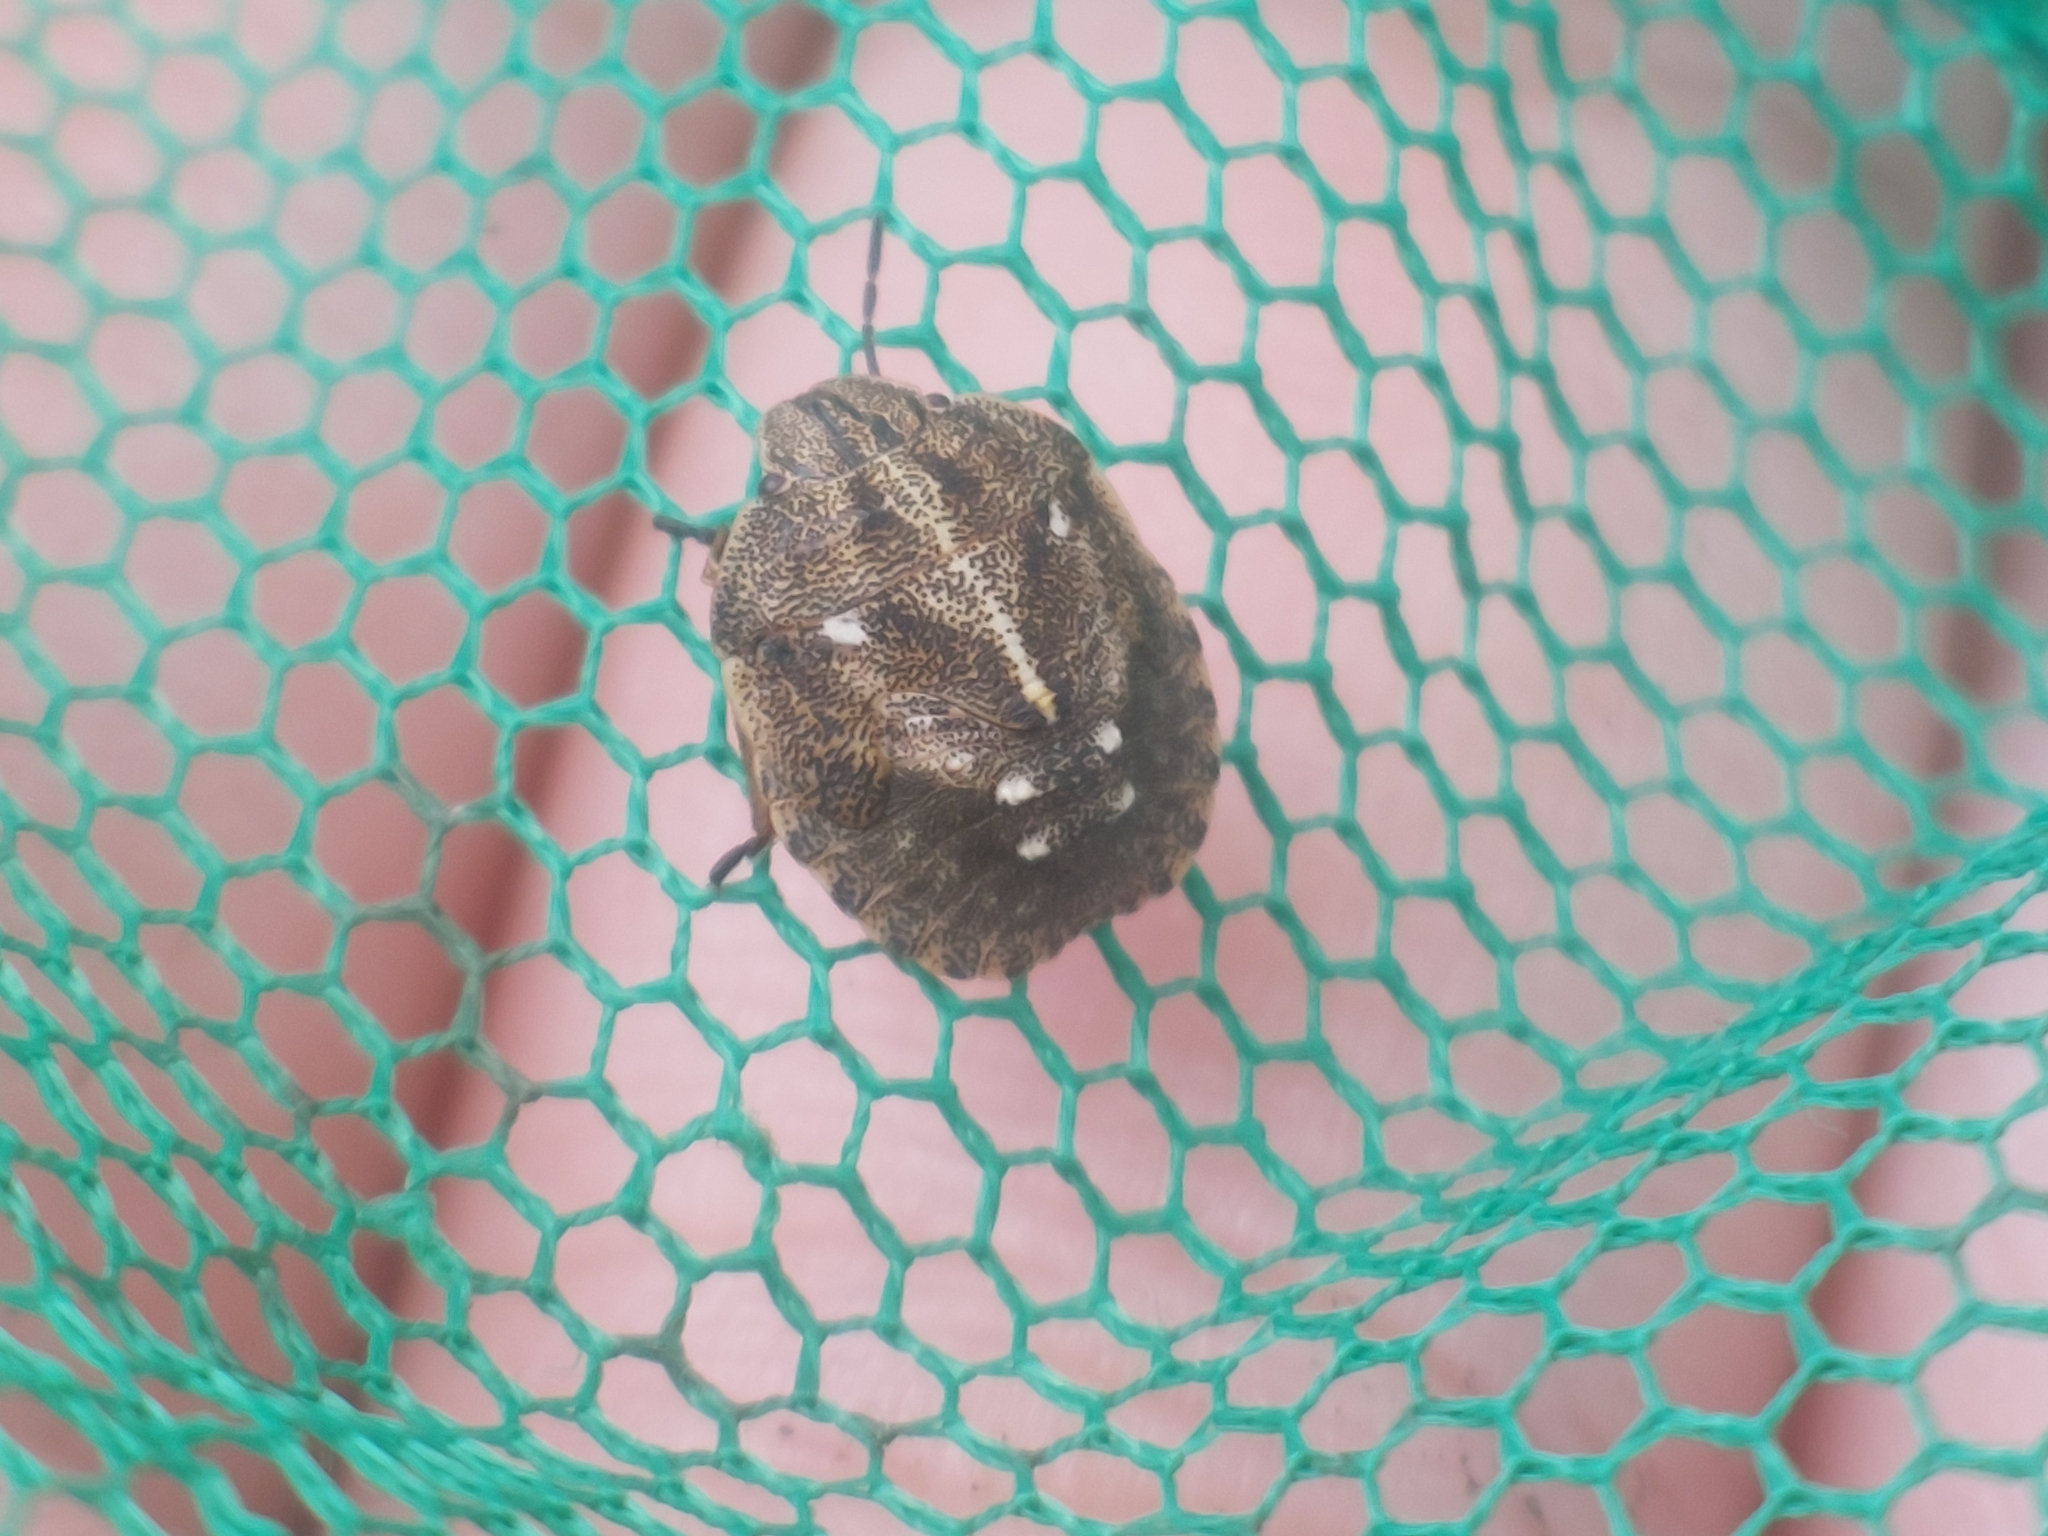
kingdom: Animalia
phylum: Arthropoda
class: Insecta
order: Hemiptera
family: Scutelleridae
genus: Eurygaster
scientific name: Eurygaster testudinaria
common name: Tortoise bug
